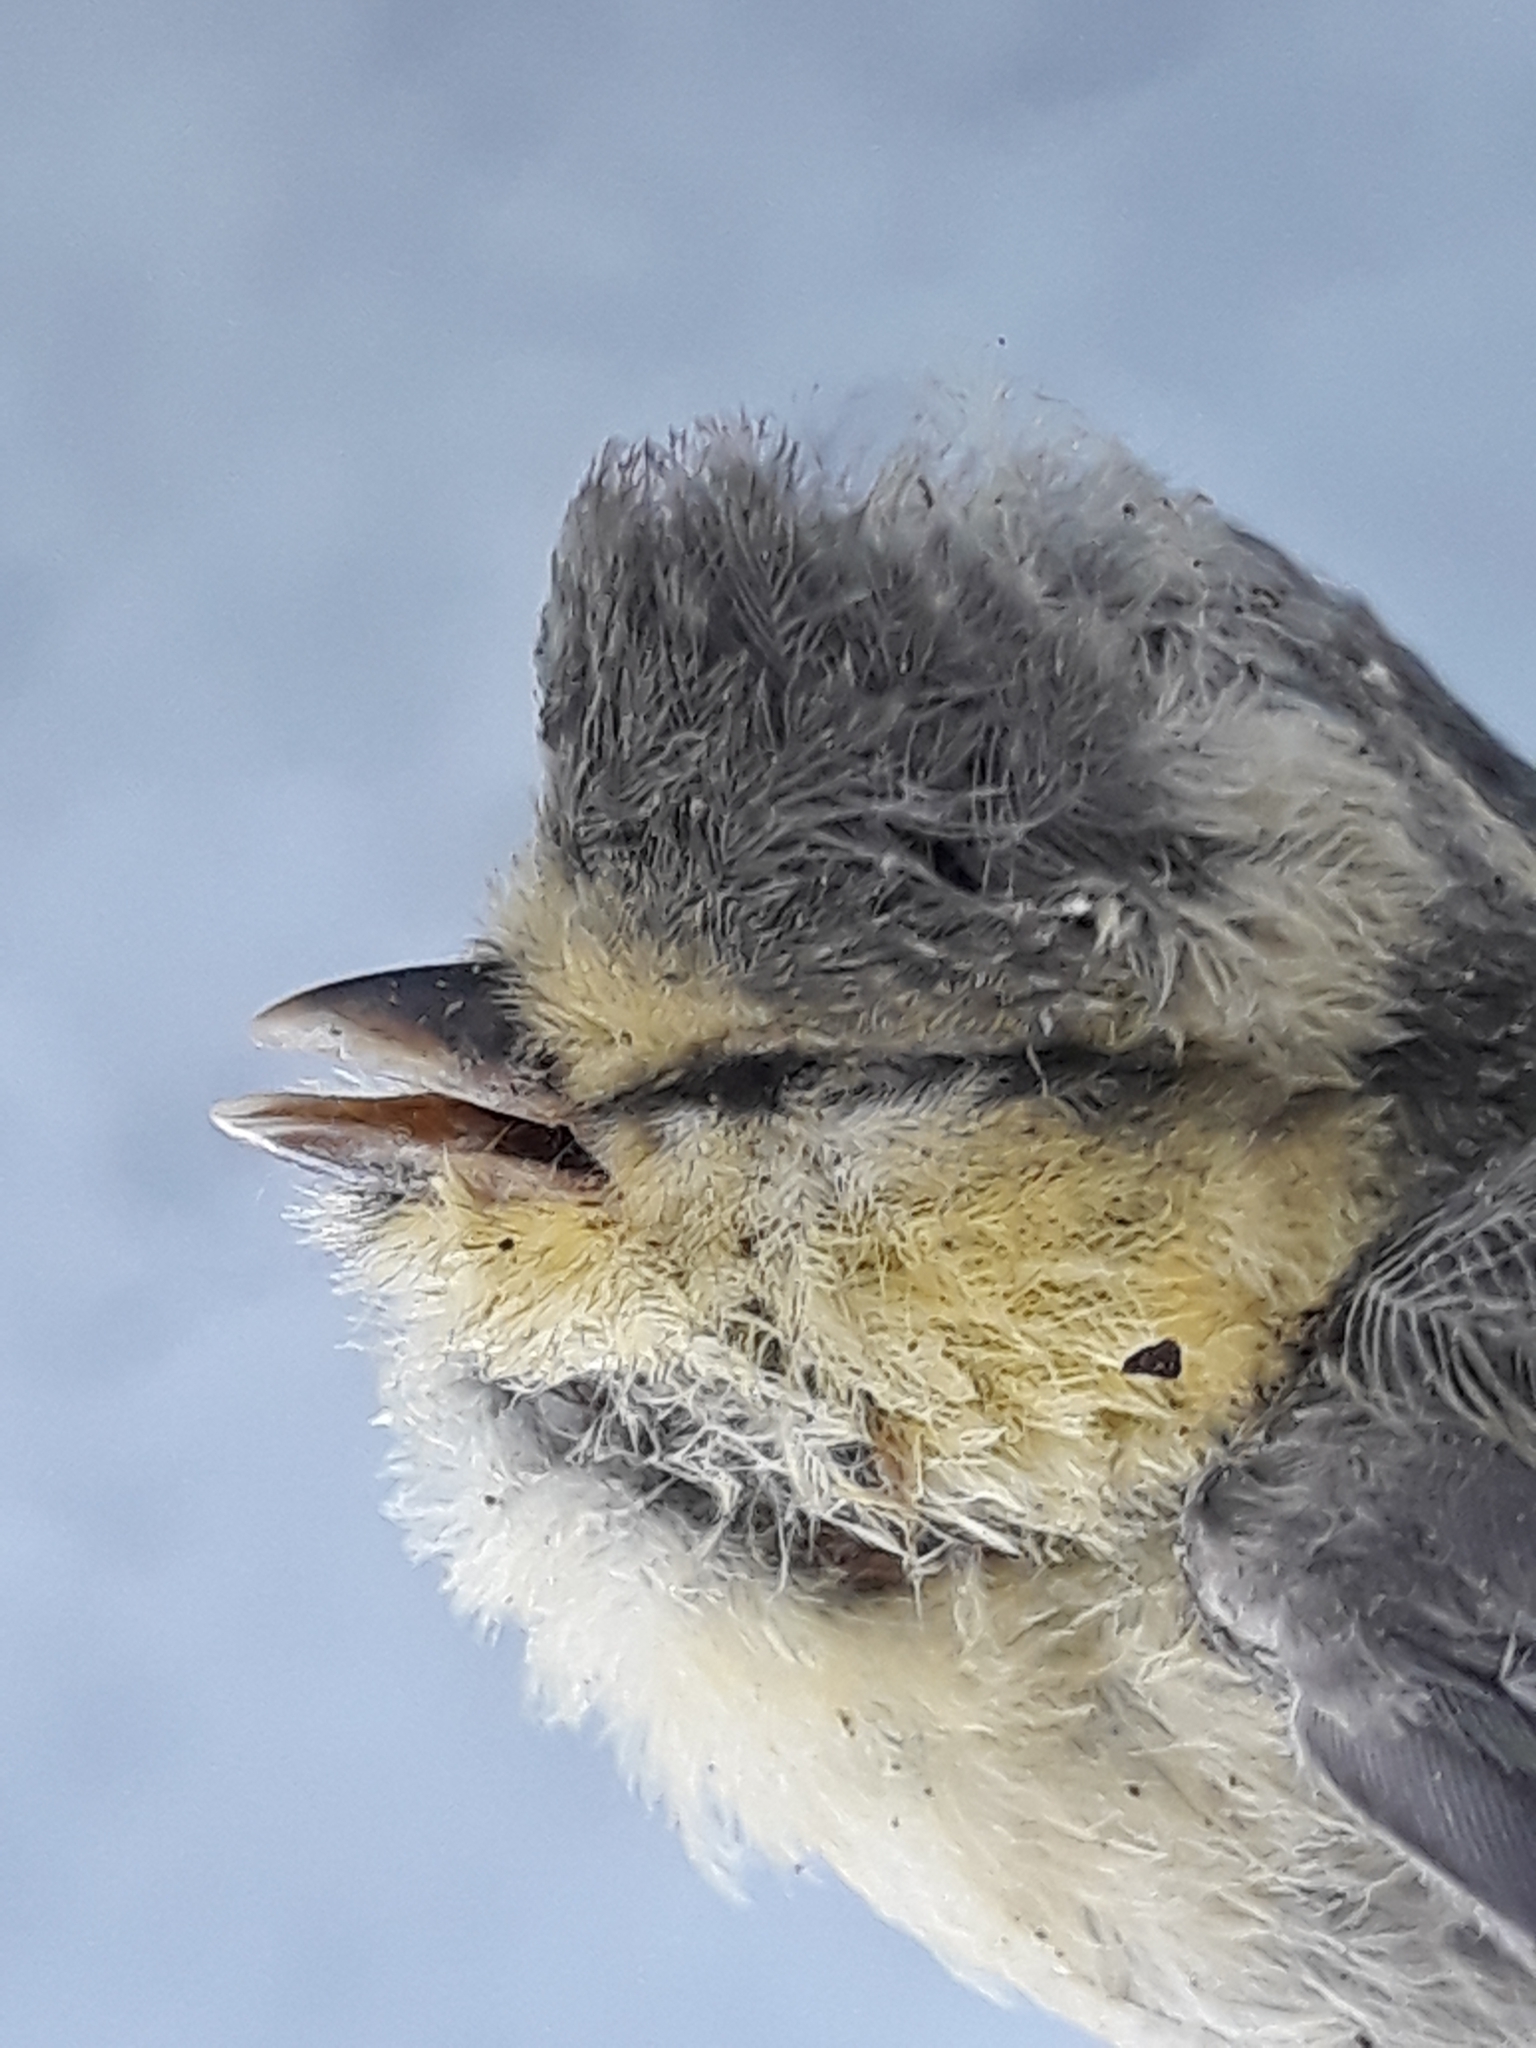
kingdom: Animalia
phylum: Chordata
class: Aves
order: Passeriformes
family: Paridae
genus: Cyanistes
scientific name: Cyanistes caeruleus
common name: Eurasian blue tit
